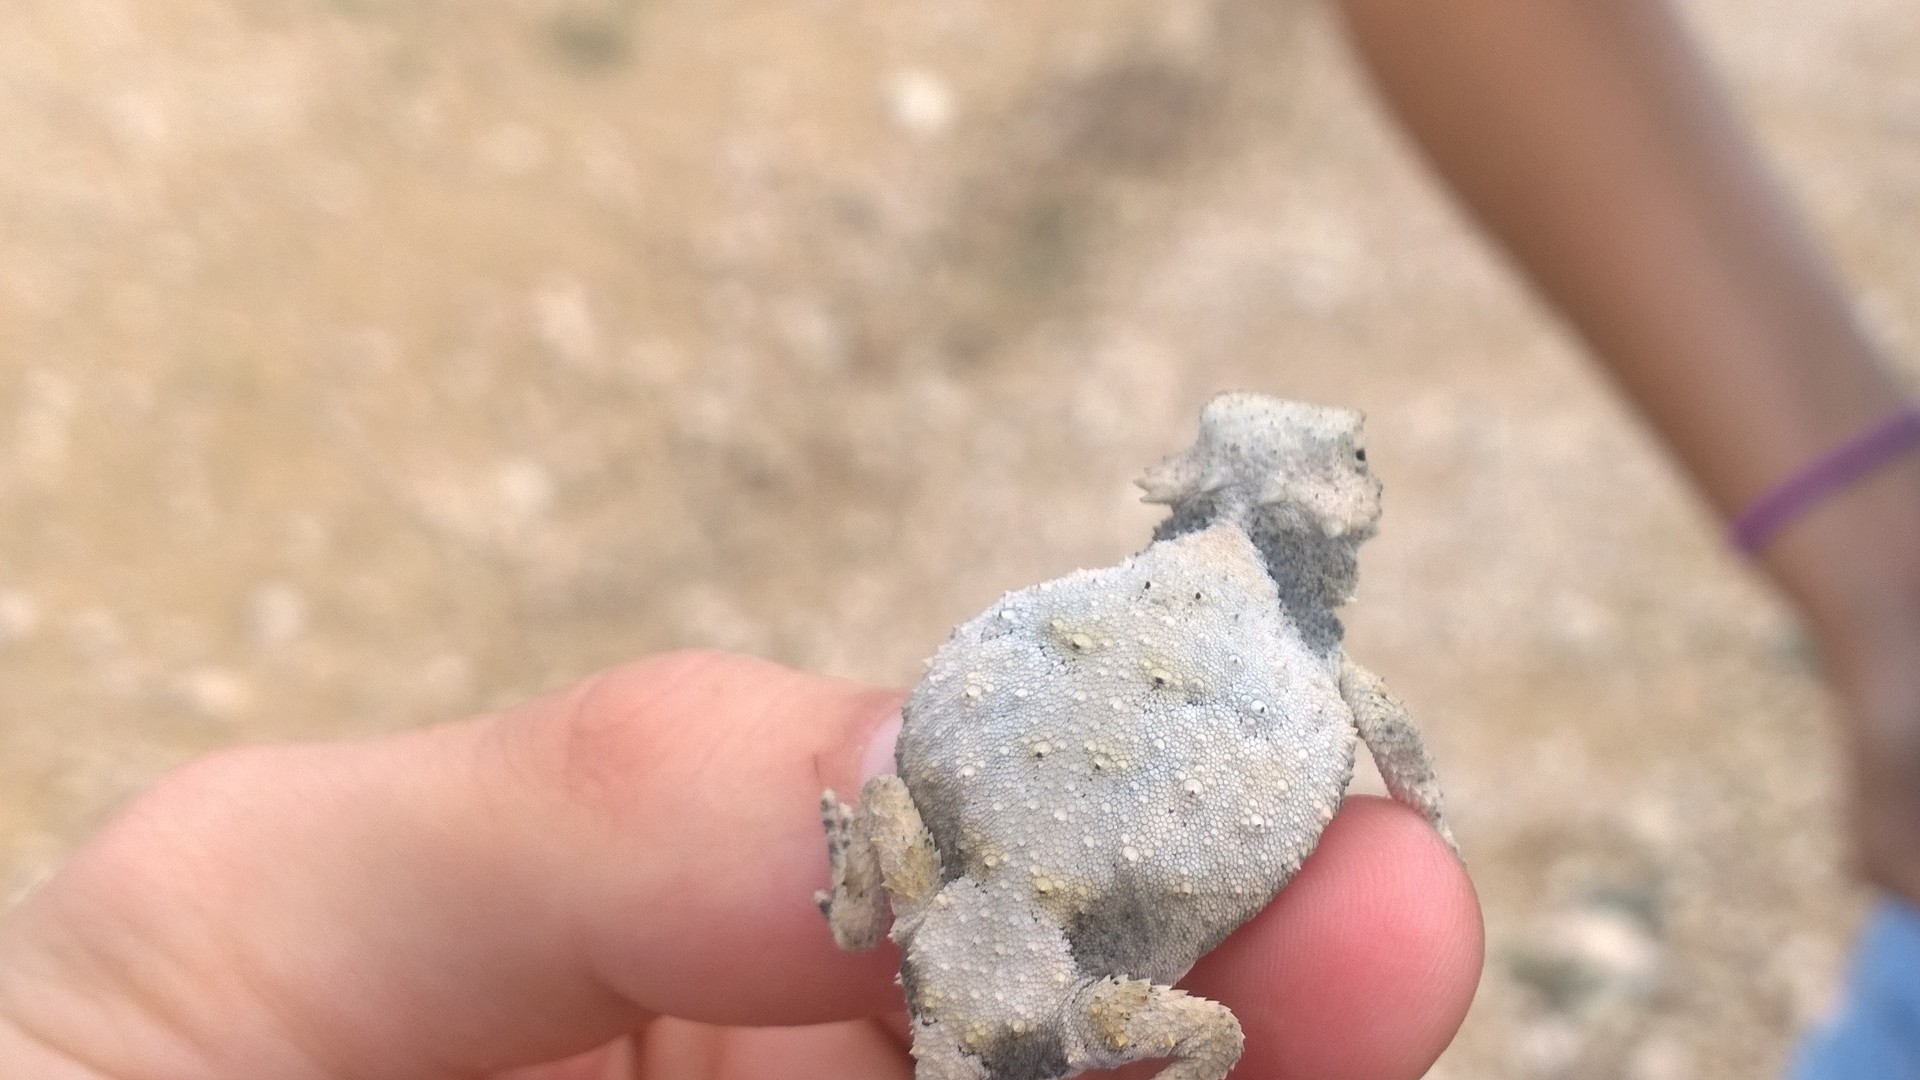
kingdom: Animalia
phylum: Chordata
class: Squamata
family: Phrynosomatidae
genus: Phrynosoma
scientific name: Phrynosoma modestum
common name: Roundtail horned lizard
